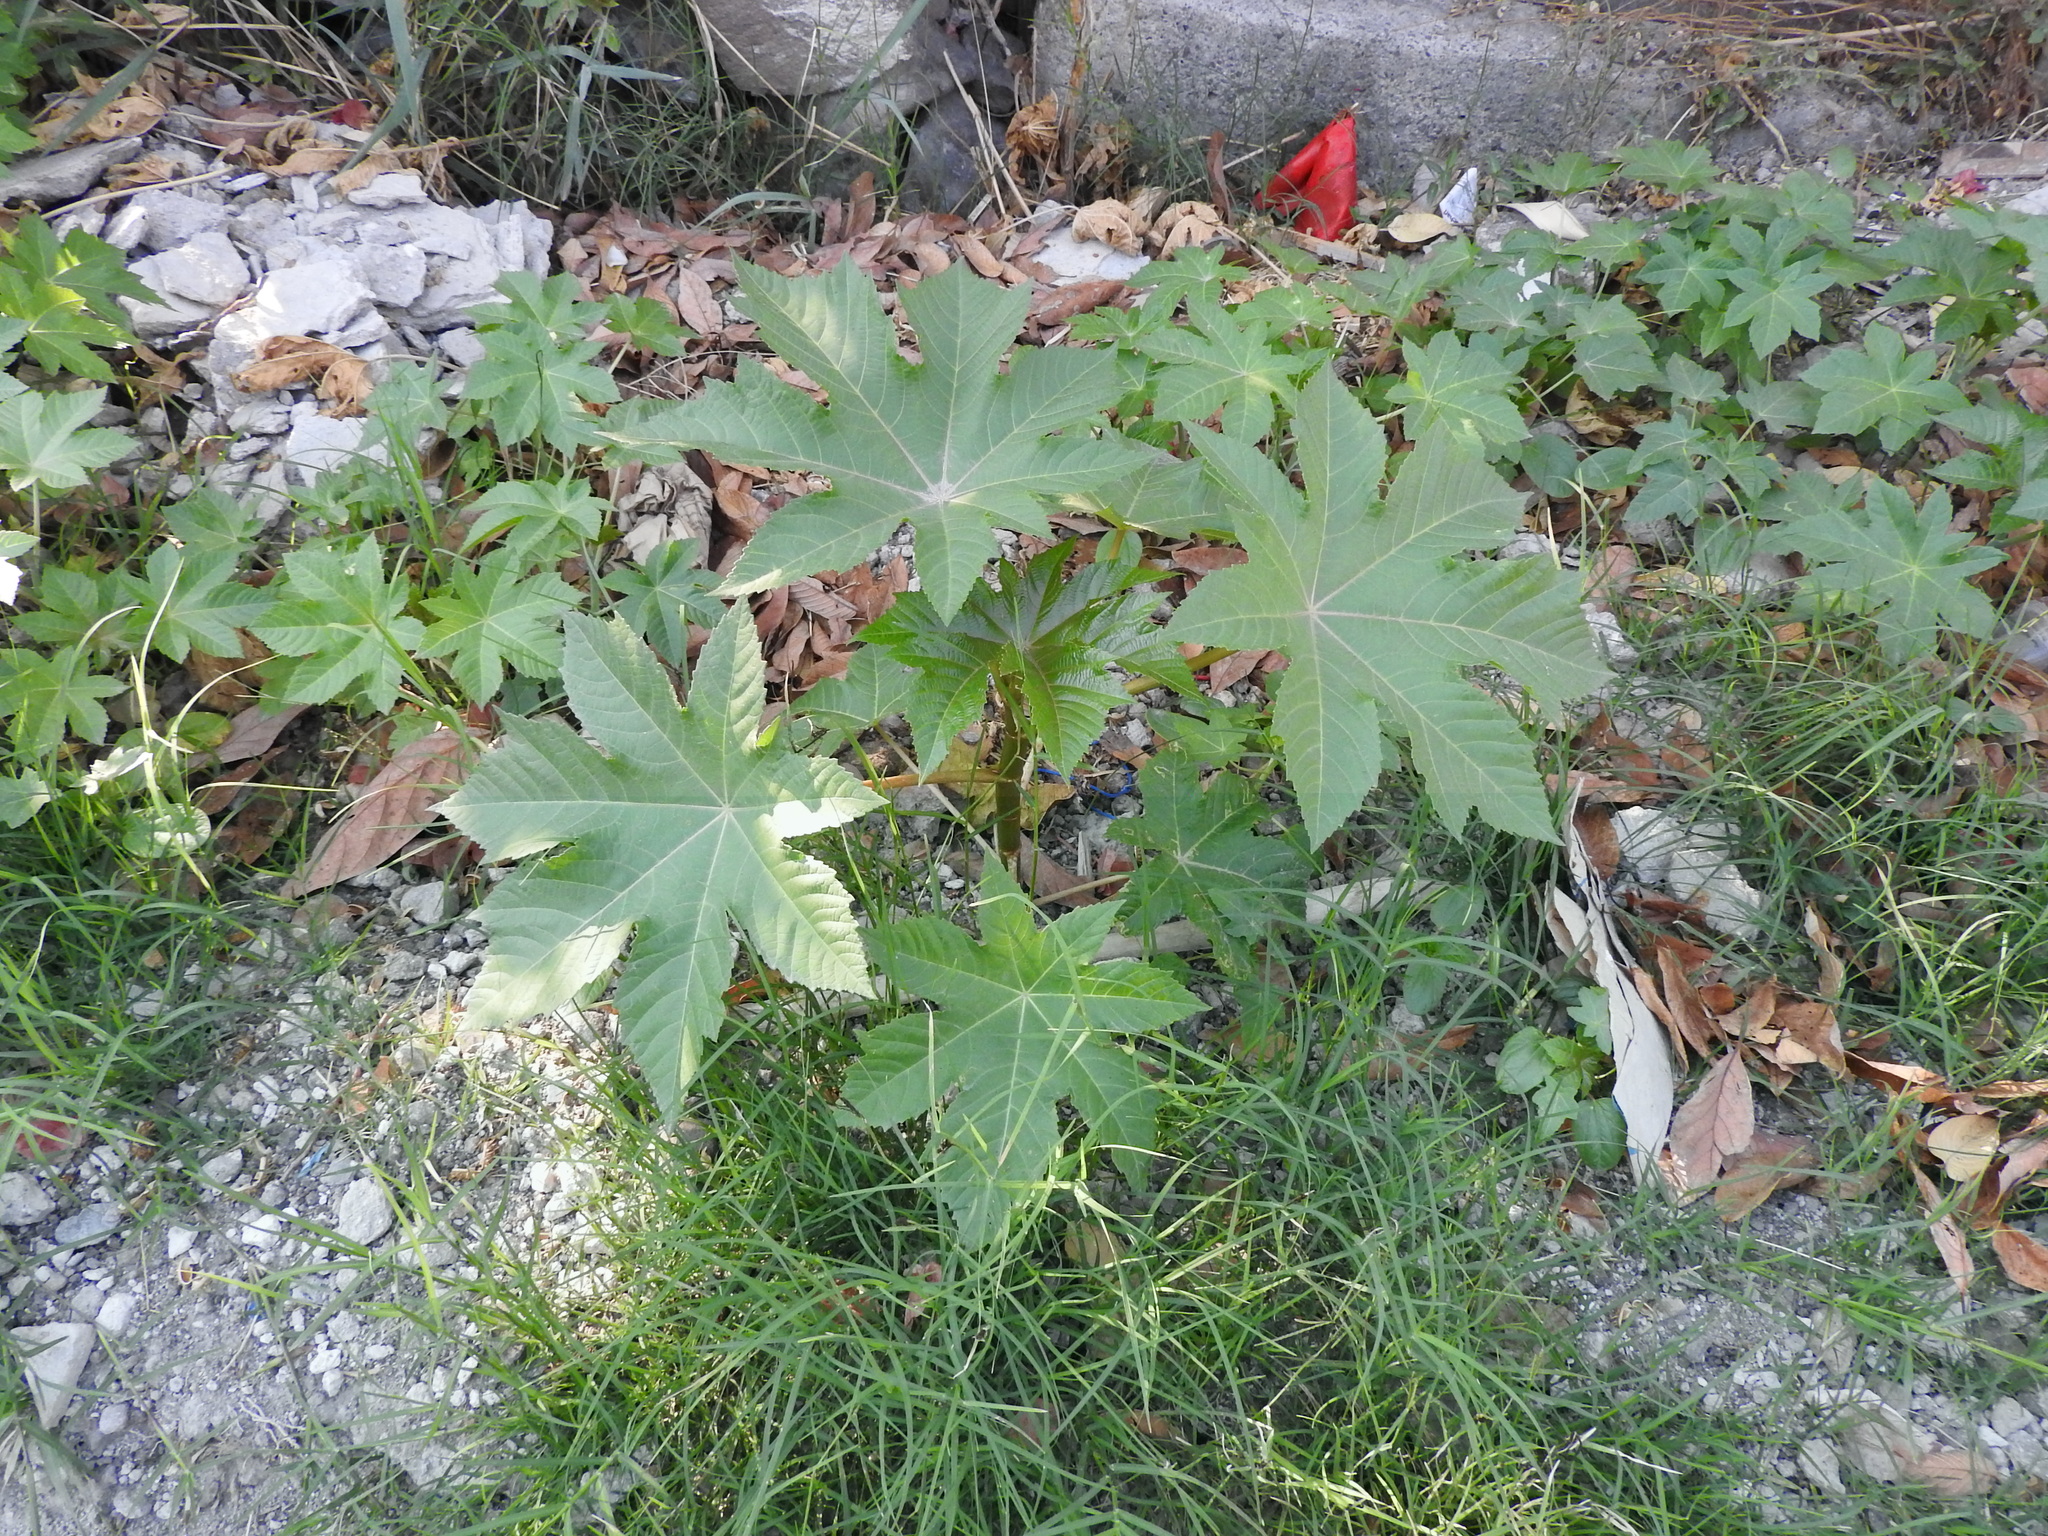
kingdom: Plantae
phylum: Tracheophyta
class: Magnoliopsida
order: Malpighiales
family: Euphorbiaceae
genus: Ricinus
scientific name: Ricinus communis
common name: Castor-oil-plant
